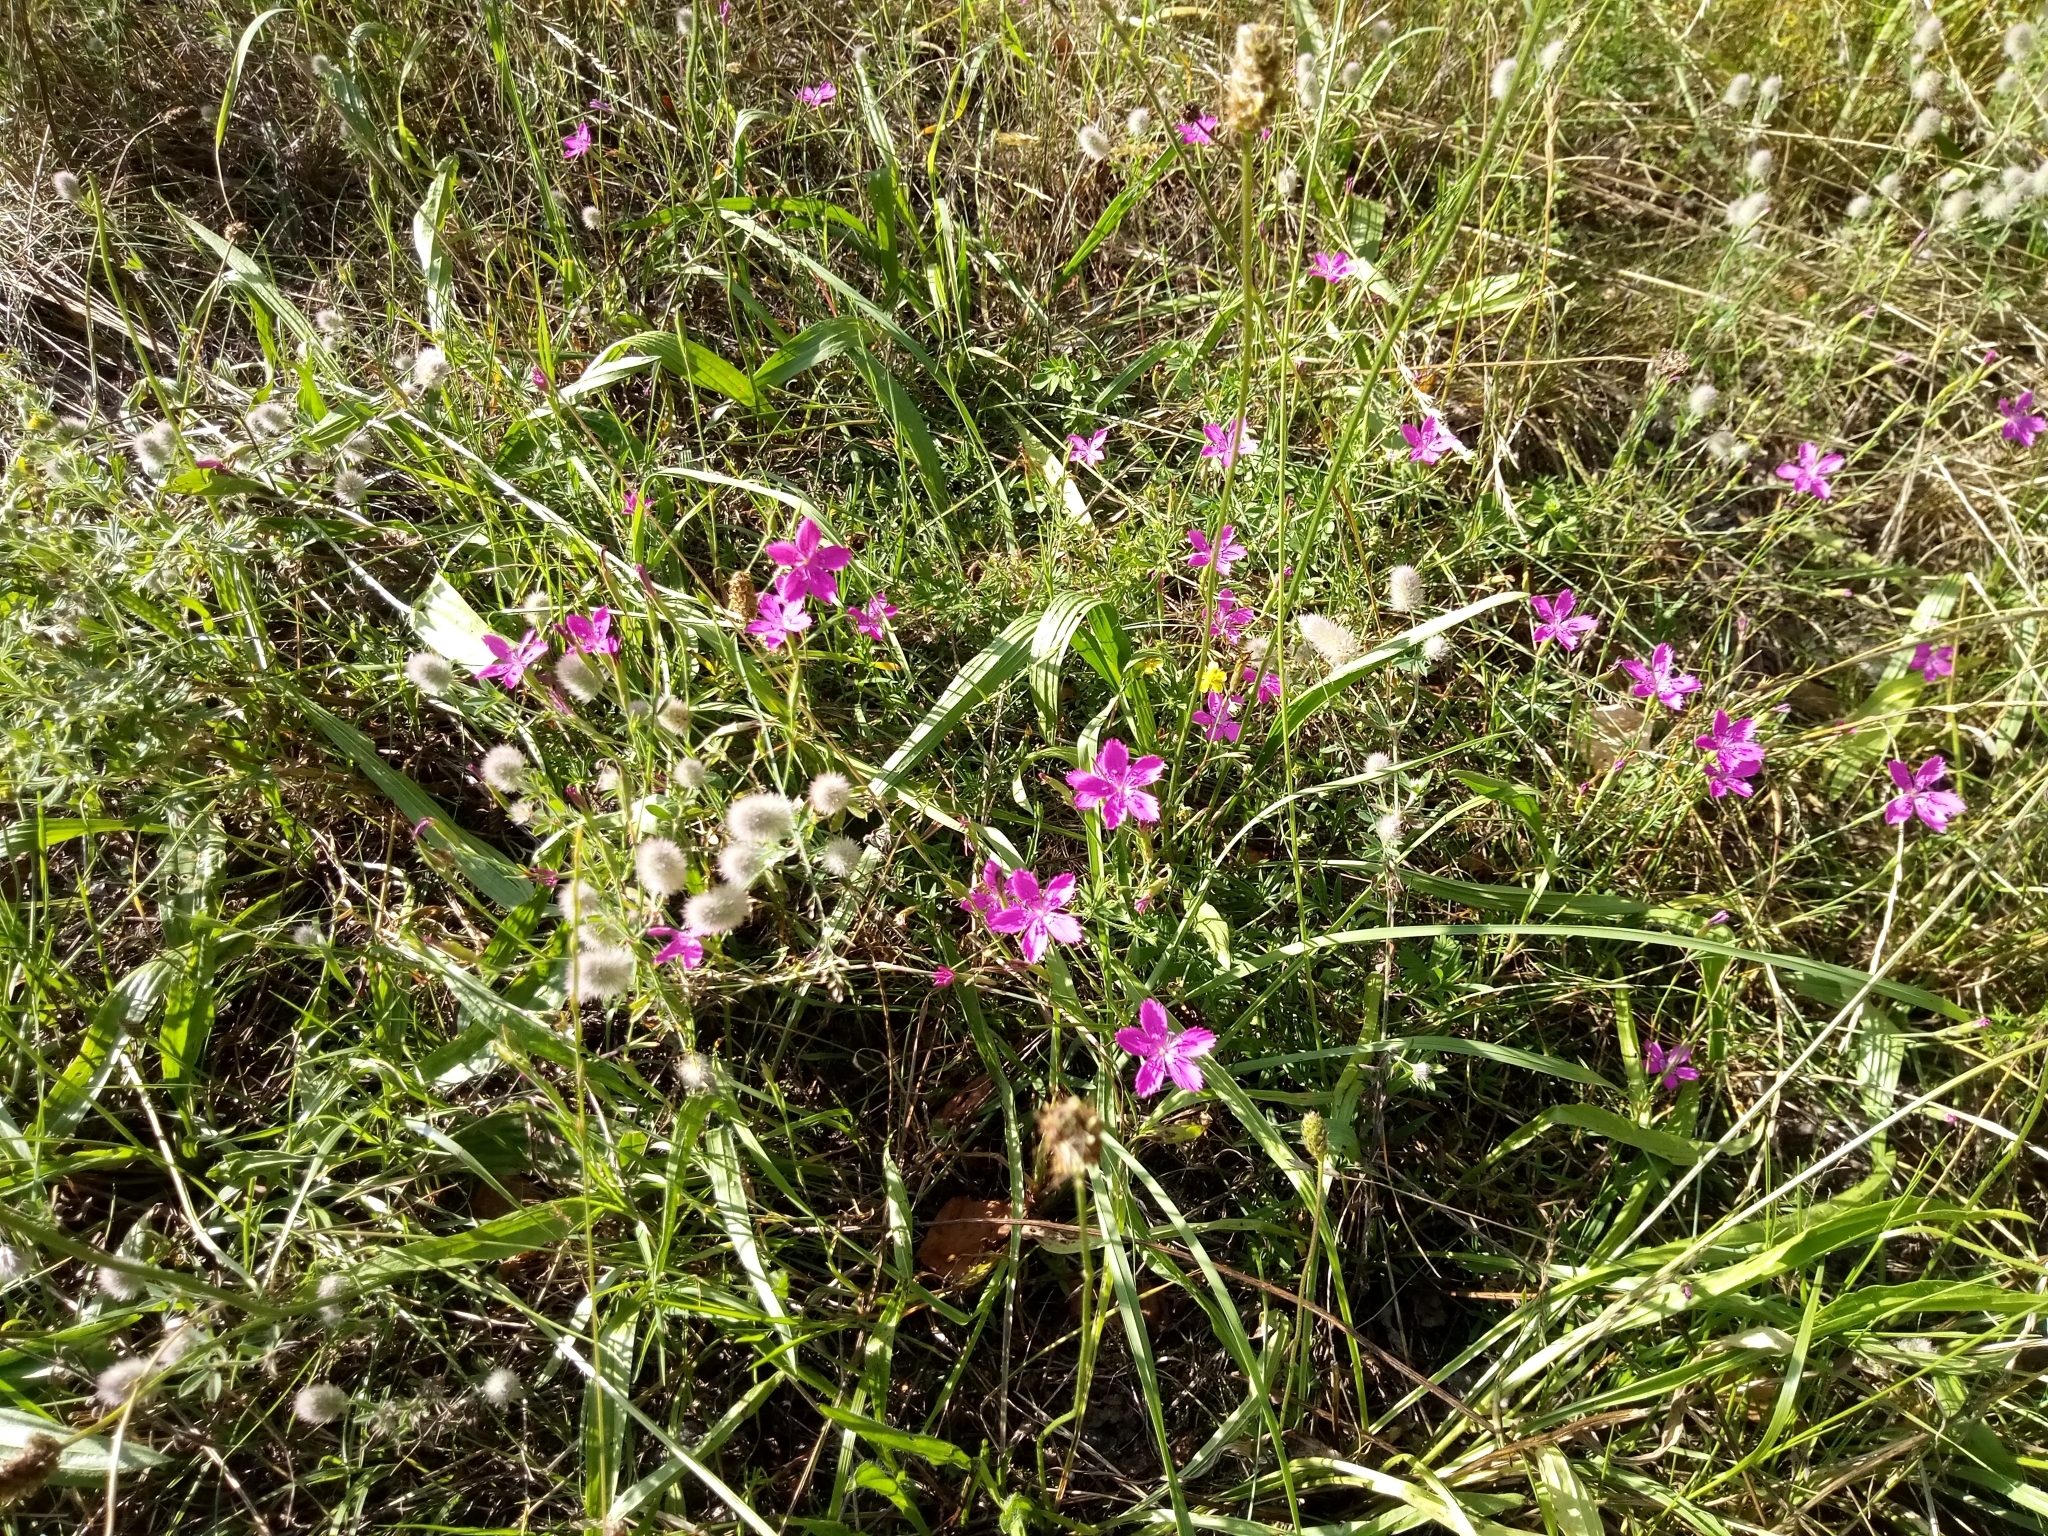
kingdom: Plantae
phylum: Tracheophyta
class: Magnoliopsida
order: Caryophyllales
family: Caryophyllaceae
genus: Dianthus
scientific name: Dianthus deltoides
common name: Maiden pink
